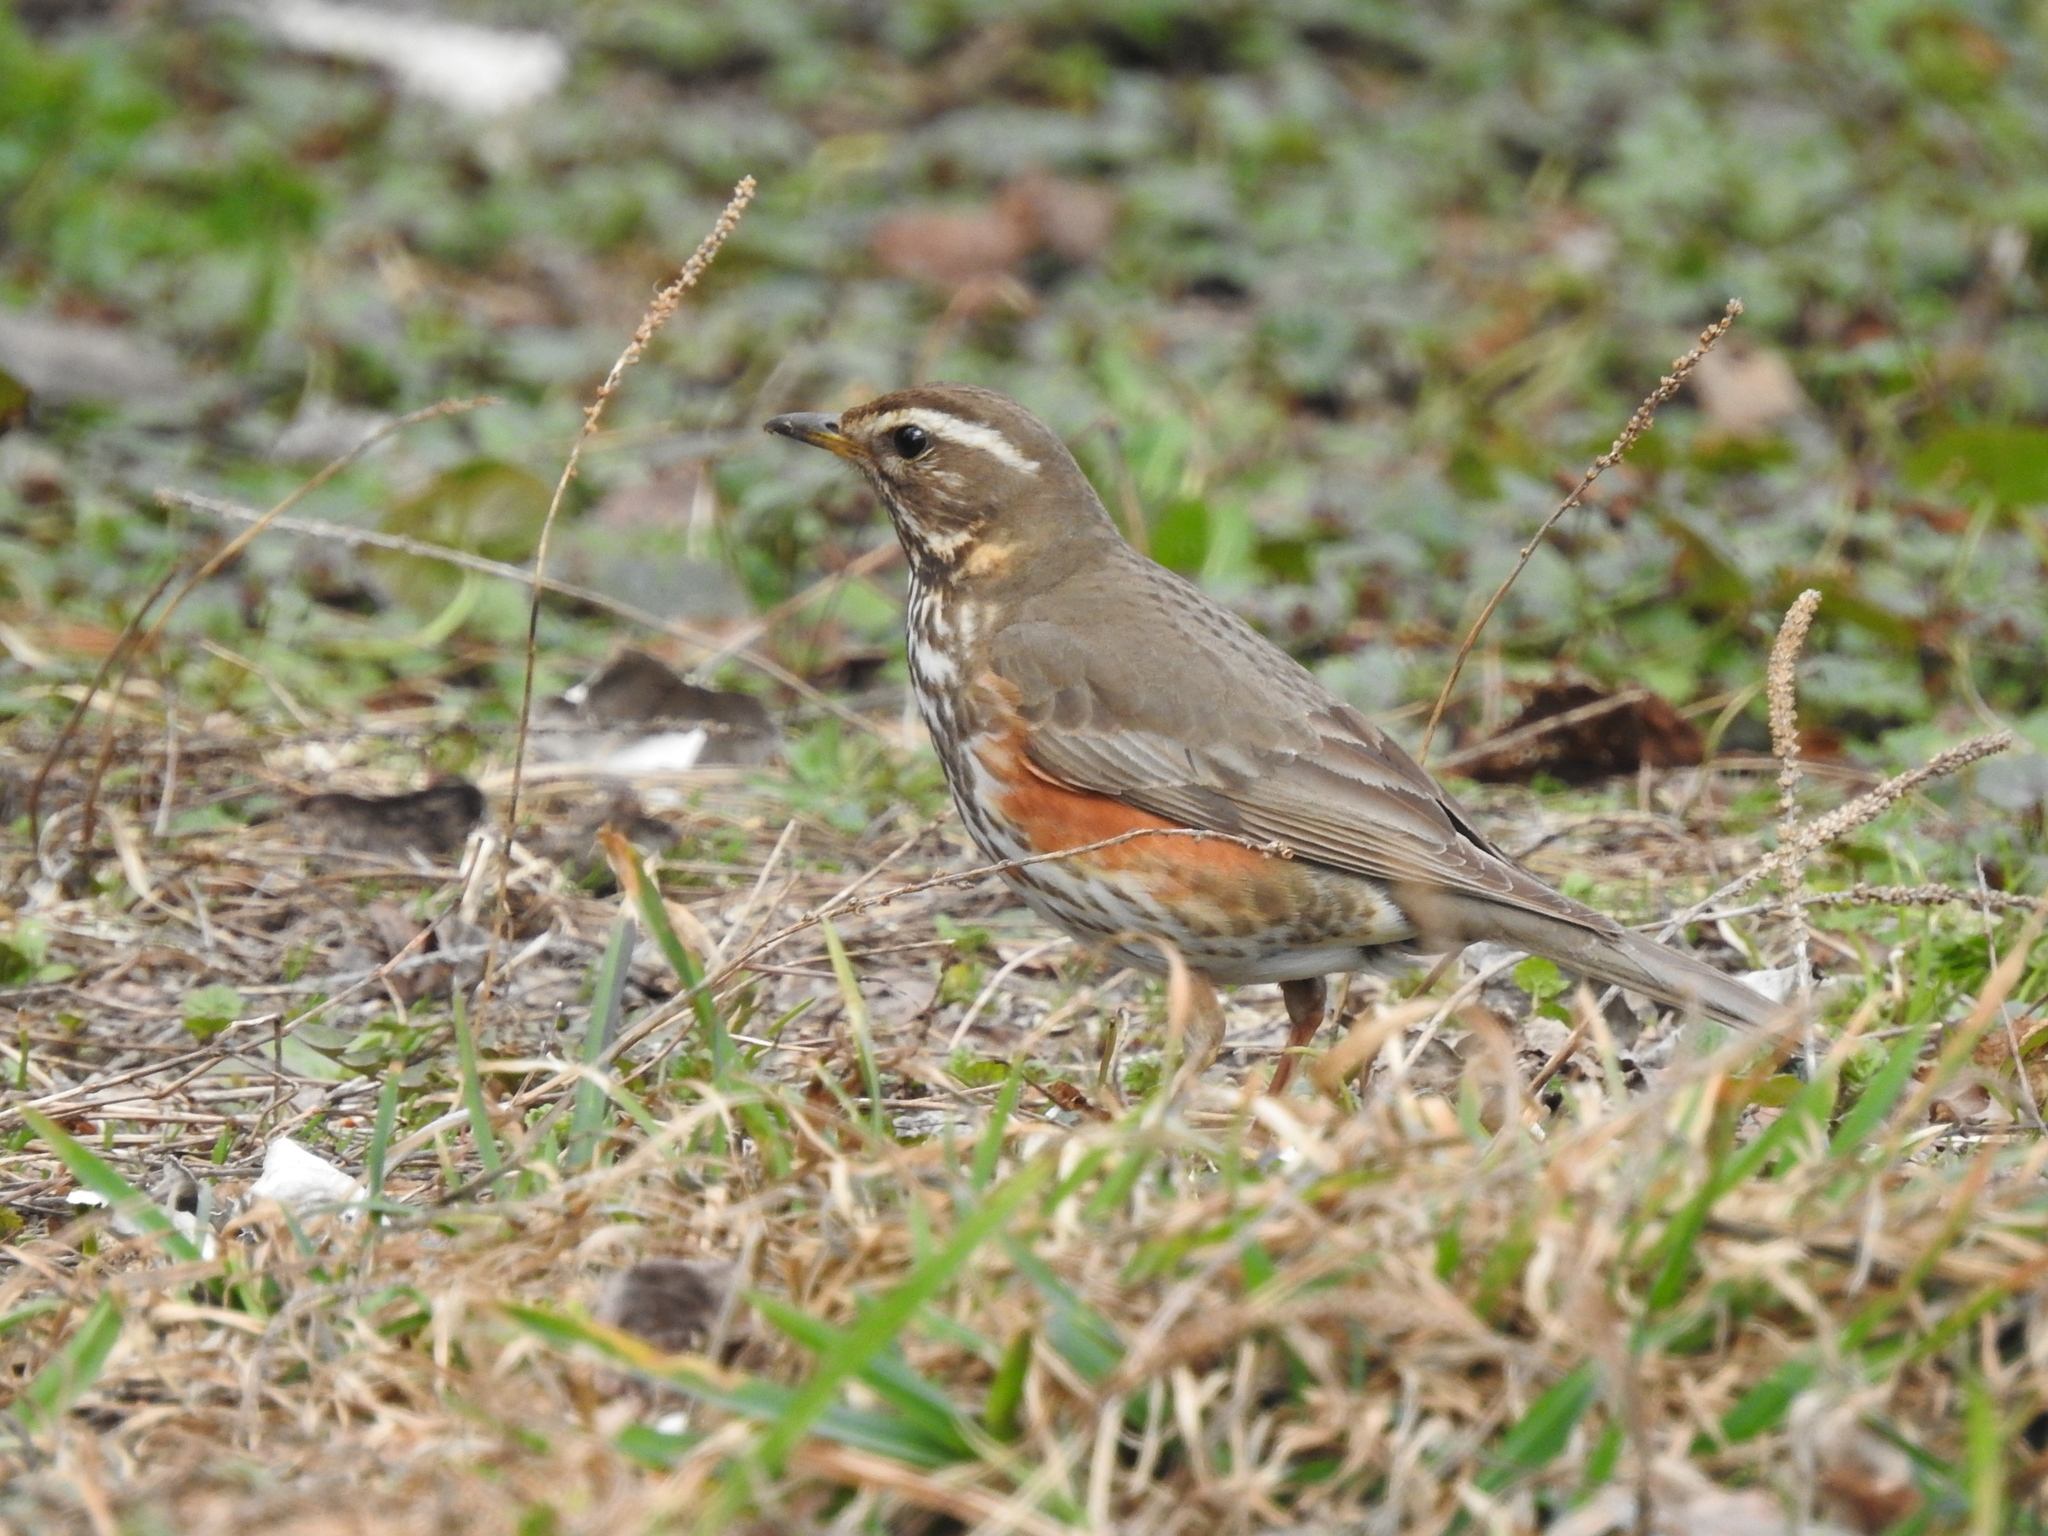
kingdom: Animalia
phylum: Chordata
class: Aves
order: Passeriformes
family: Turdidae
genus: Turdus
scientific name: Turdus iliacus
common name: Redwing
